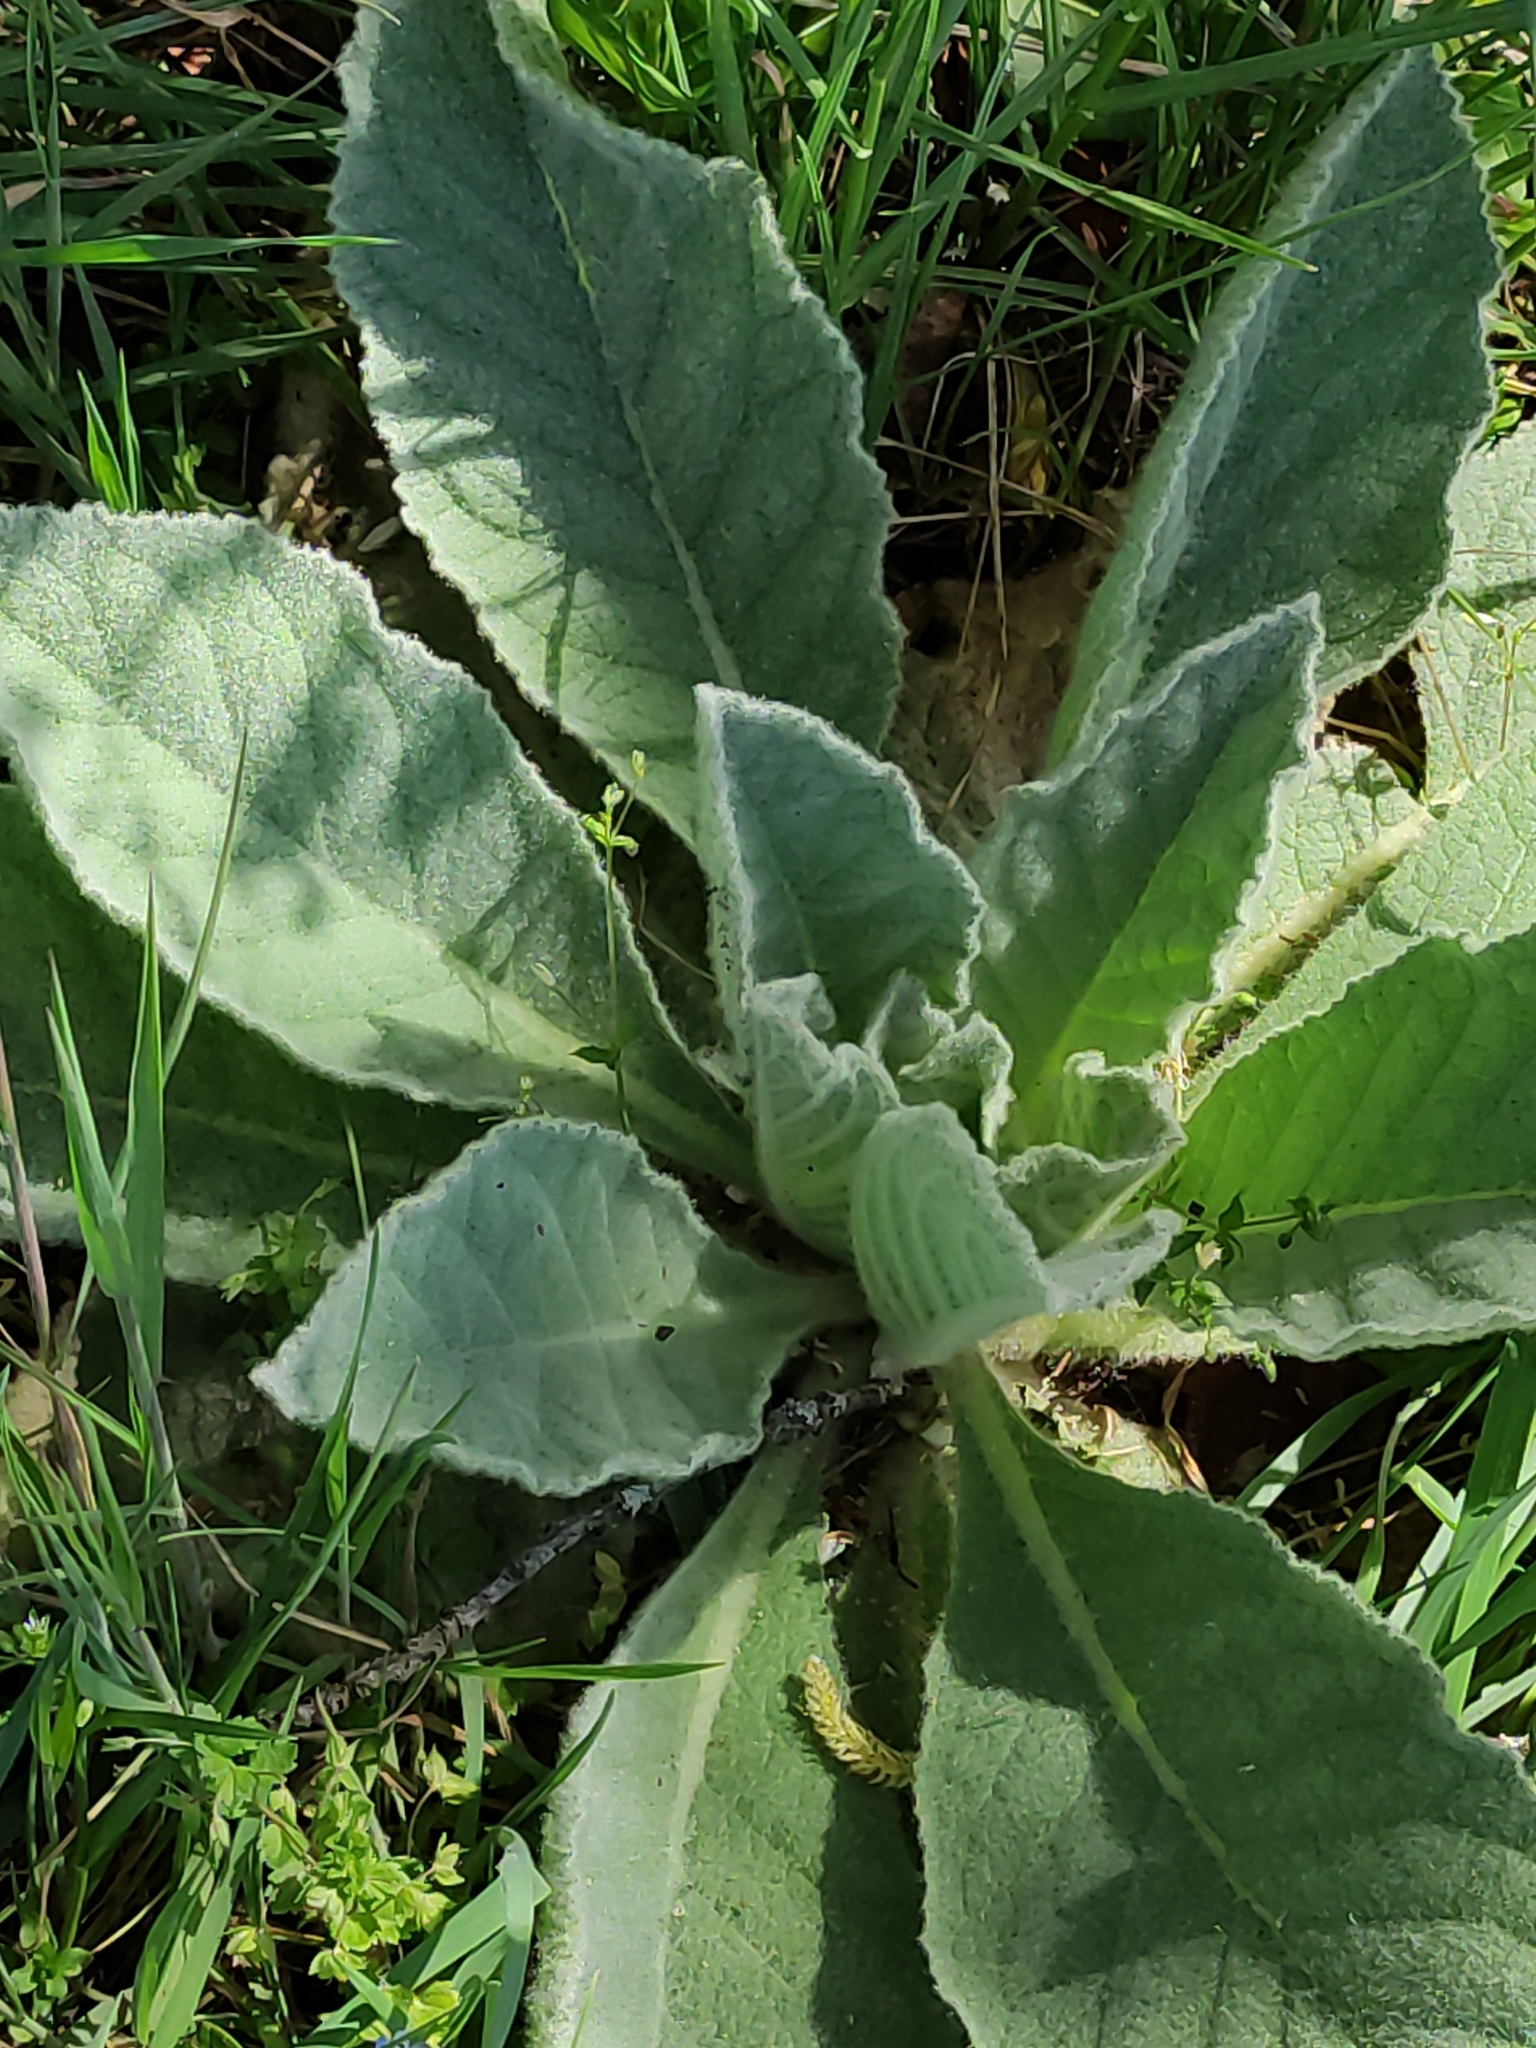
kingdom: Plantae
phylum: Tracheophyta
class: Magnoliopsida
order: Lamiales
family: Scrophulariaceae
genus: Verbascum
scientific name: Verbascum thapsus
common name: Common mullein
